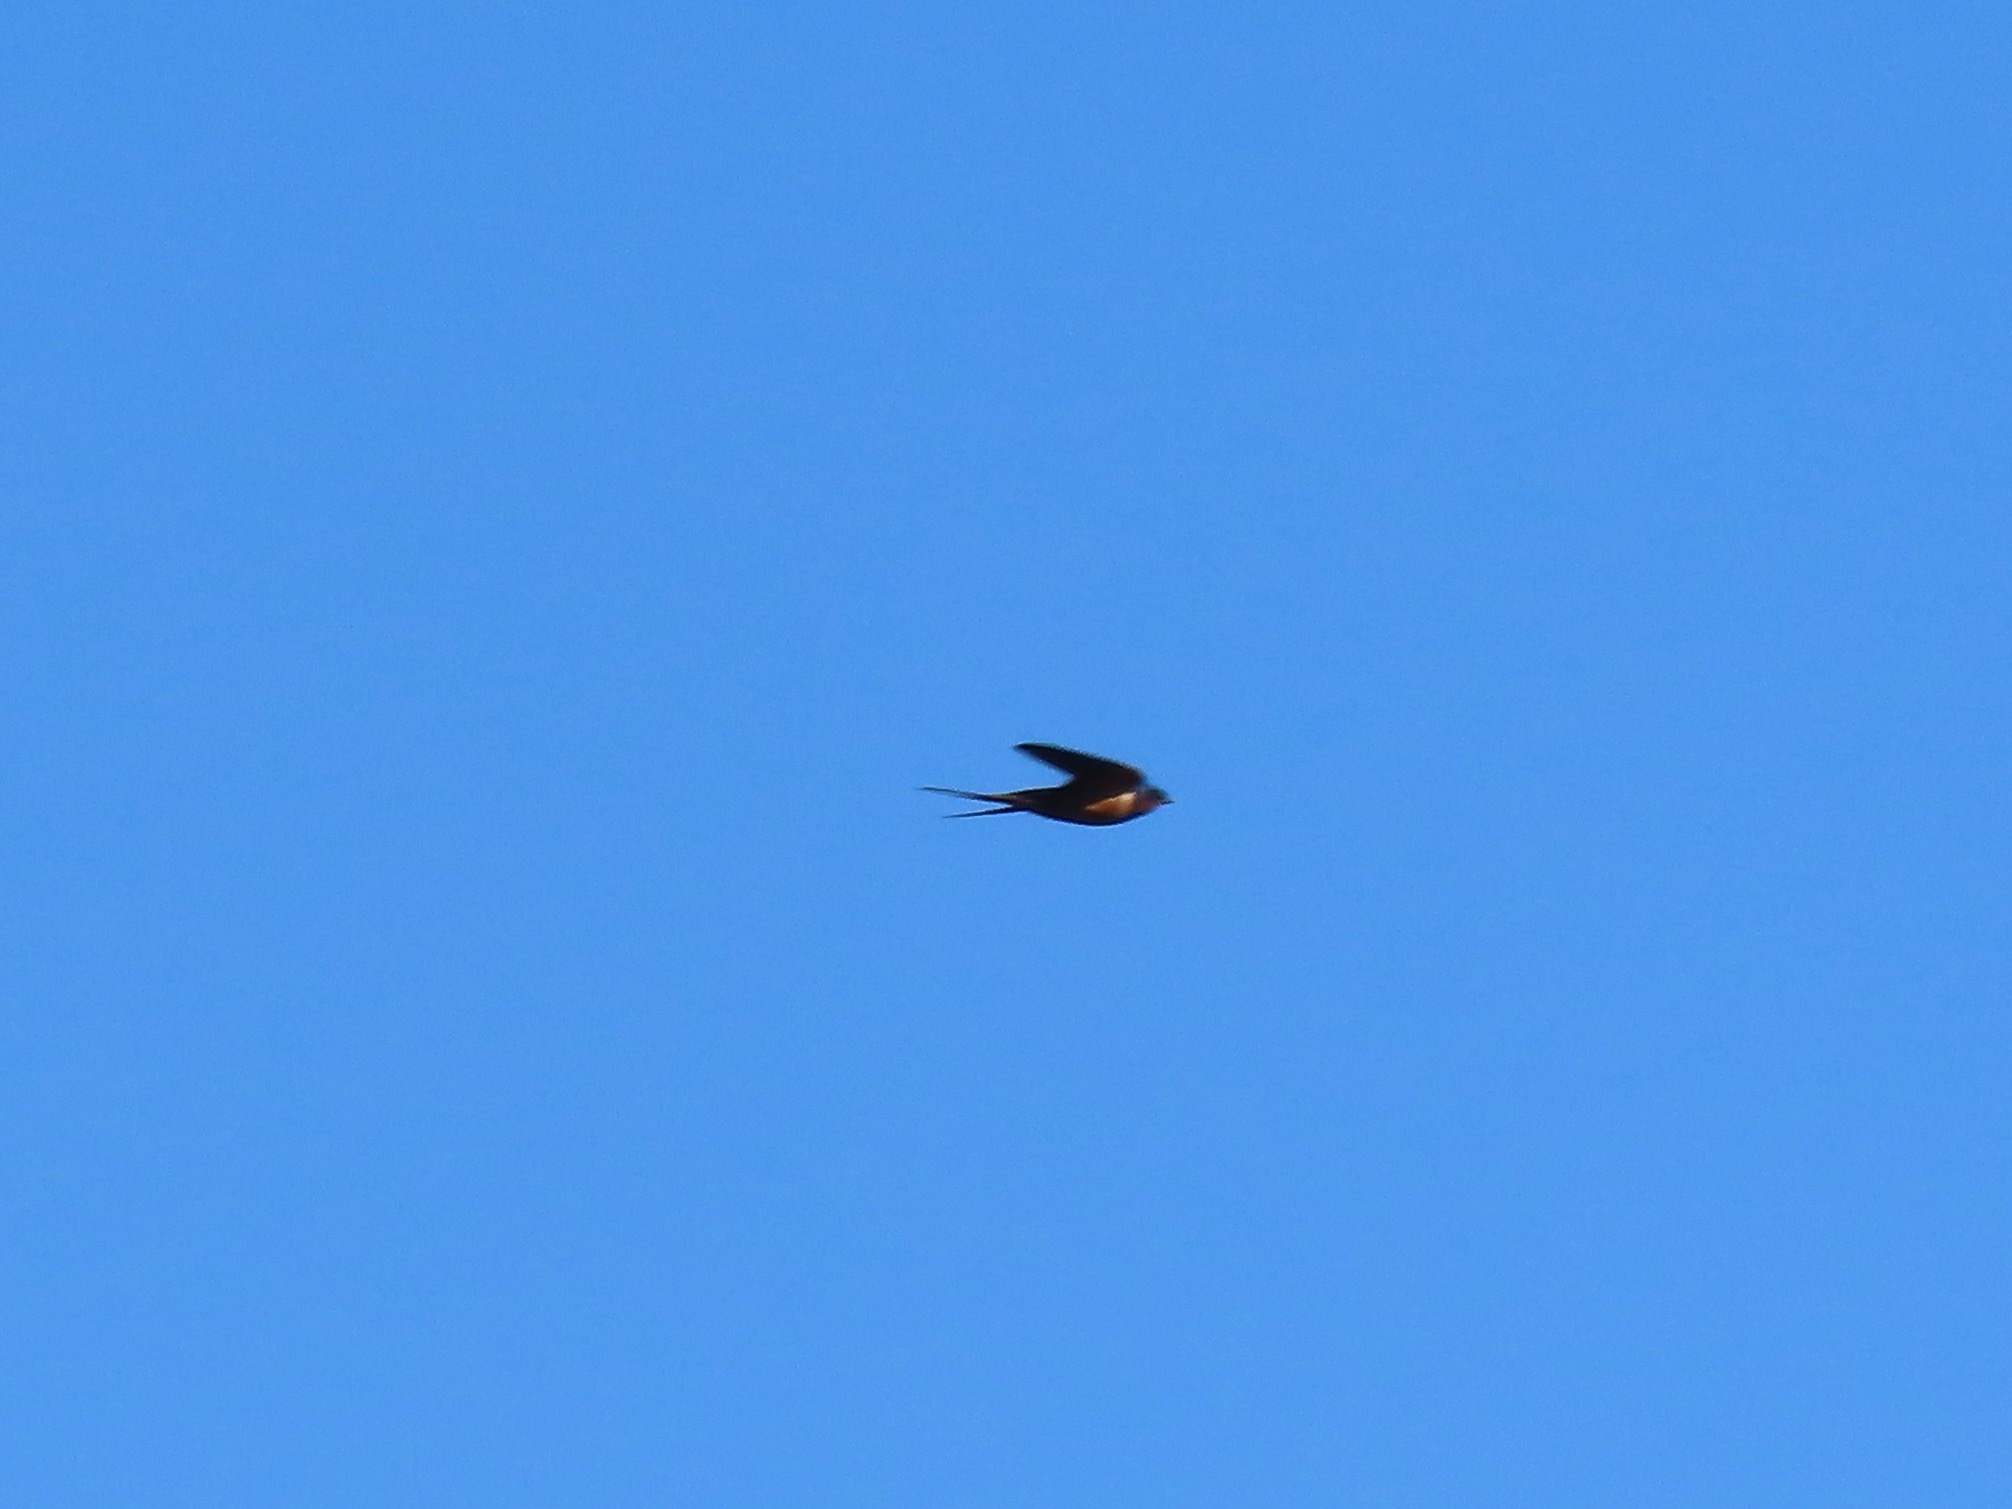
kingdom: Animalia
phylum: Chordata
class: Aves
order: Passeriformes
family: Hirundinidae
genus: Hirundo
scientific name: Hirundo rustica
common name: Barn swallow
